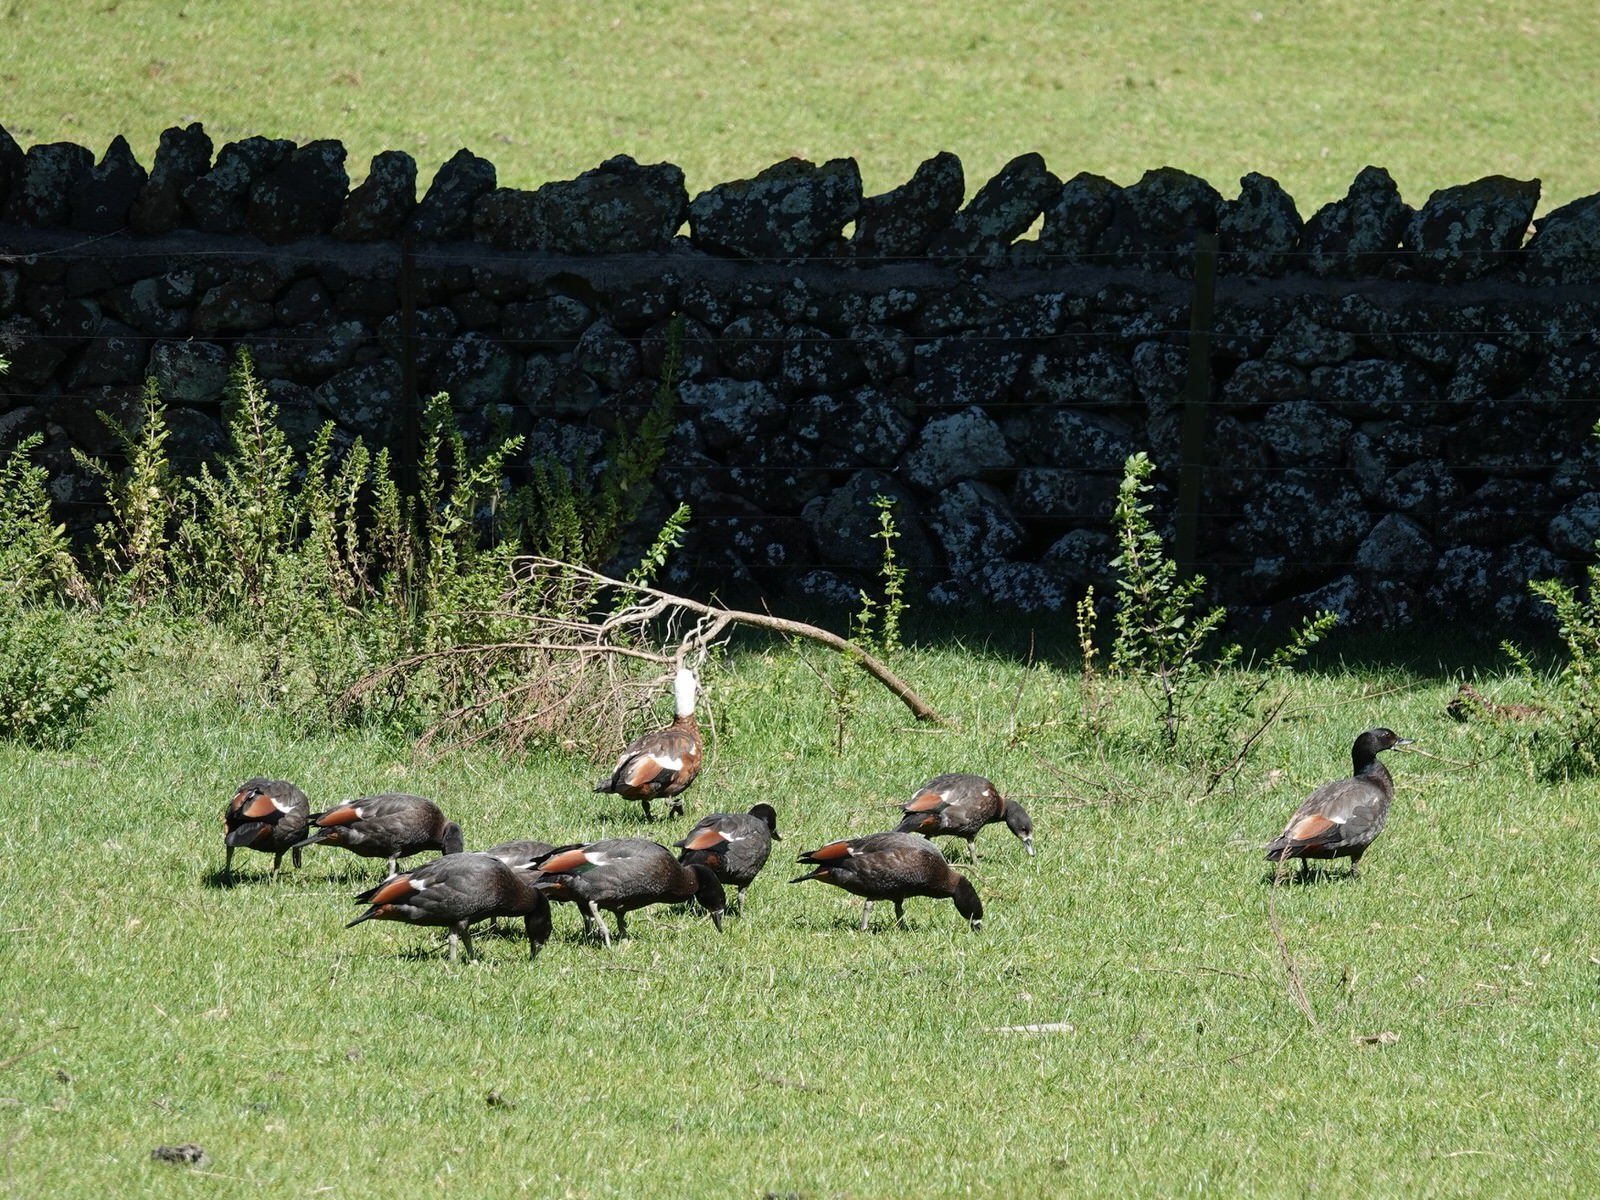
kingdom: Animalia
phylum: Chordata
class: Aves
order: Anseriformes
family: Anatidae
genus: Tadorna
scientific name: Tadorna variegata
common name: Paradise shelduck
